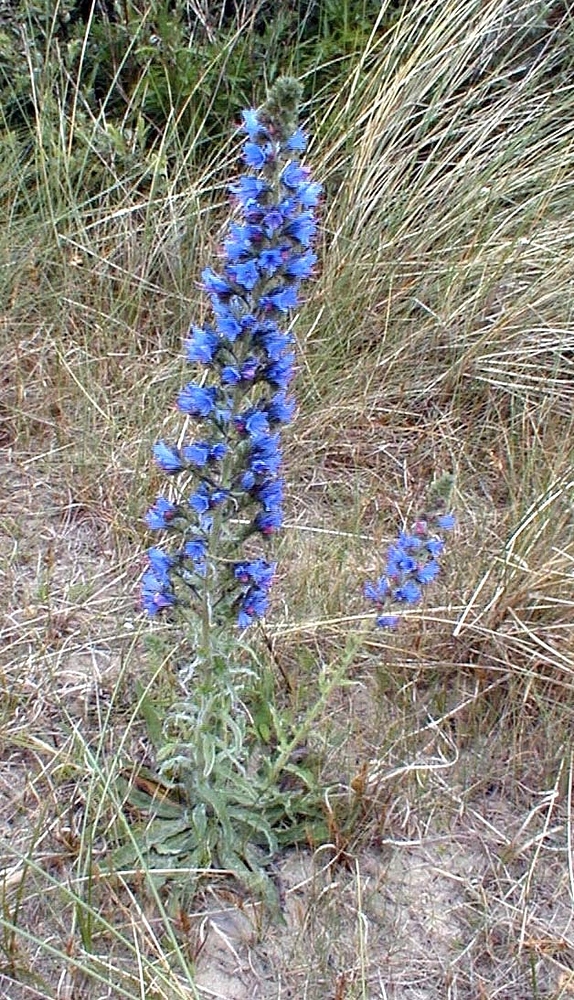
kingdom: Plantae
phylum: Tracheophyta
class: Magnoliopsida
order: Boraginales
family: Boraginaceae
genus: Echium
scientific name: Echium vulgare
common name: Common viper's bugloss
